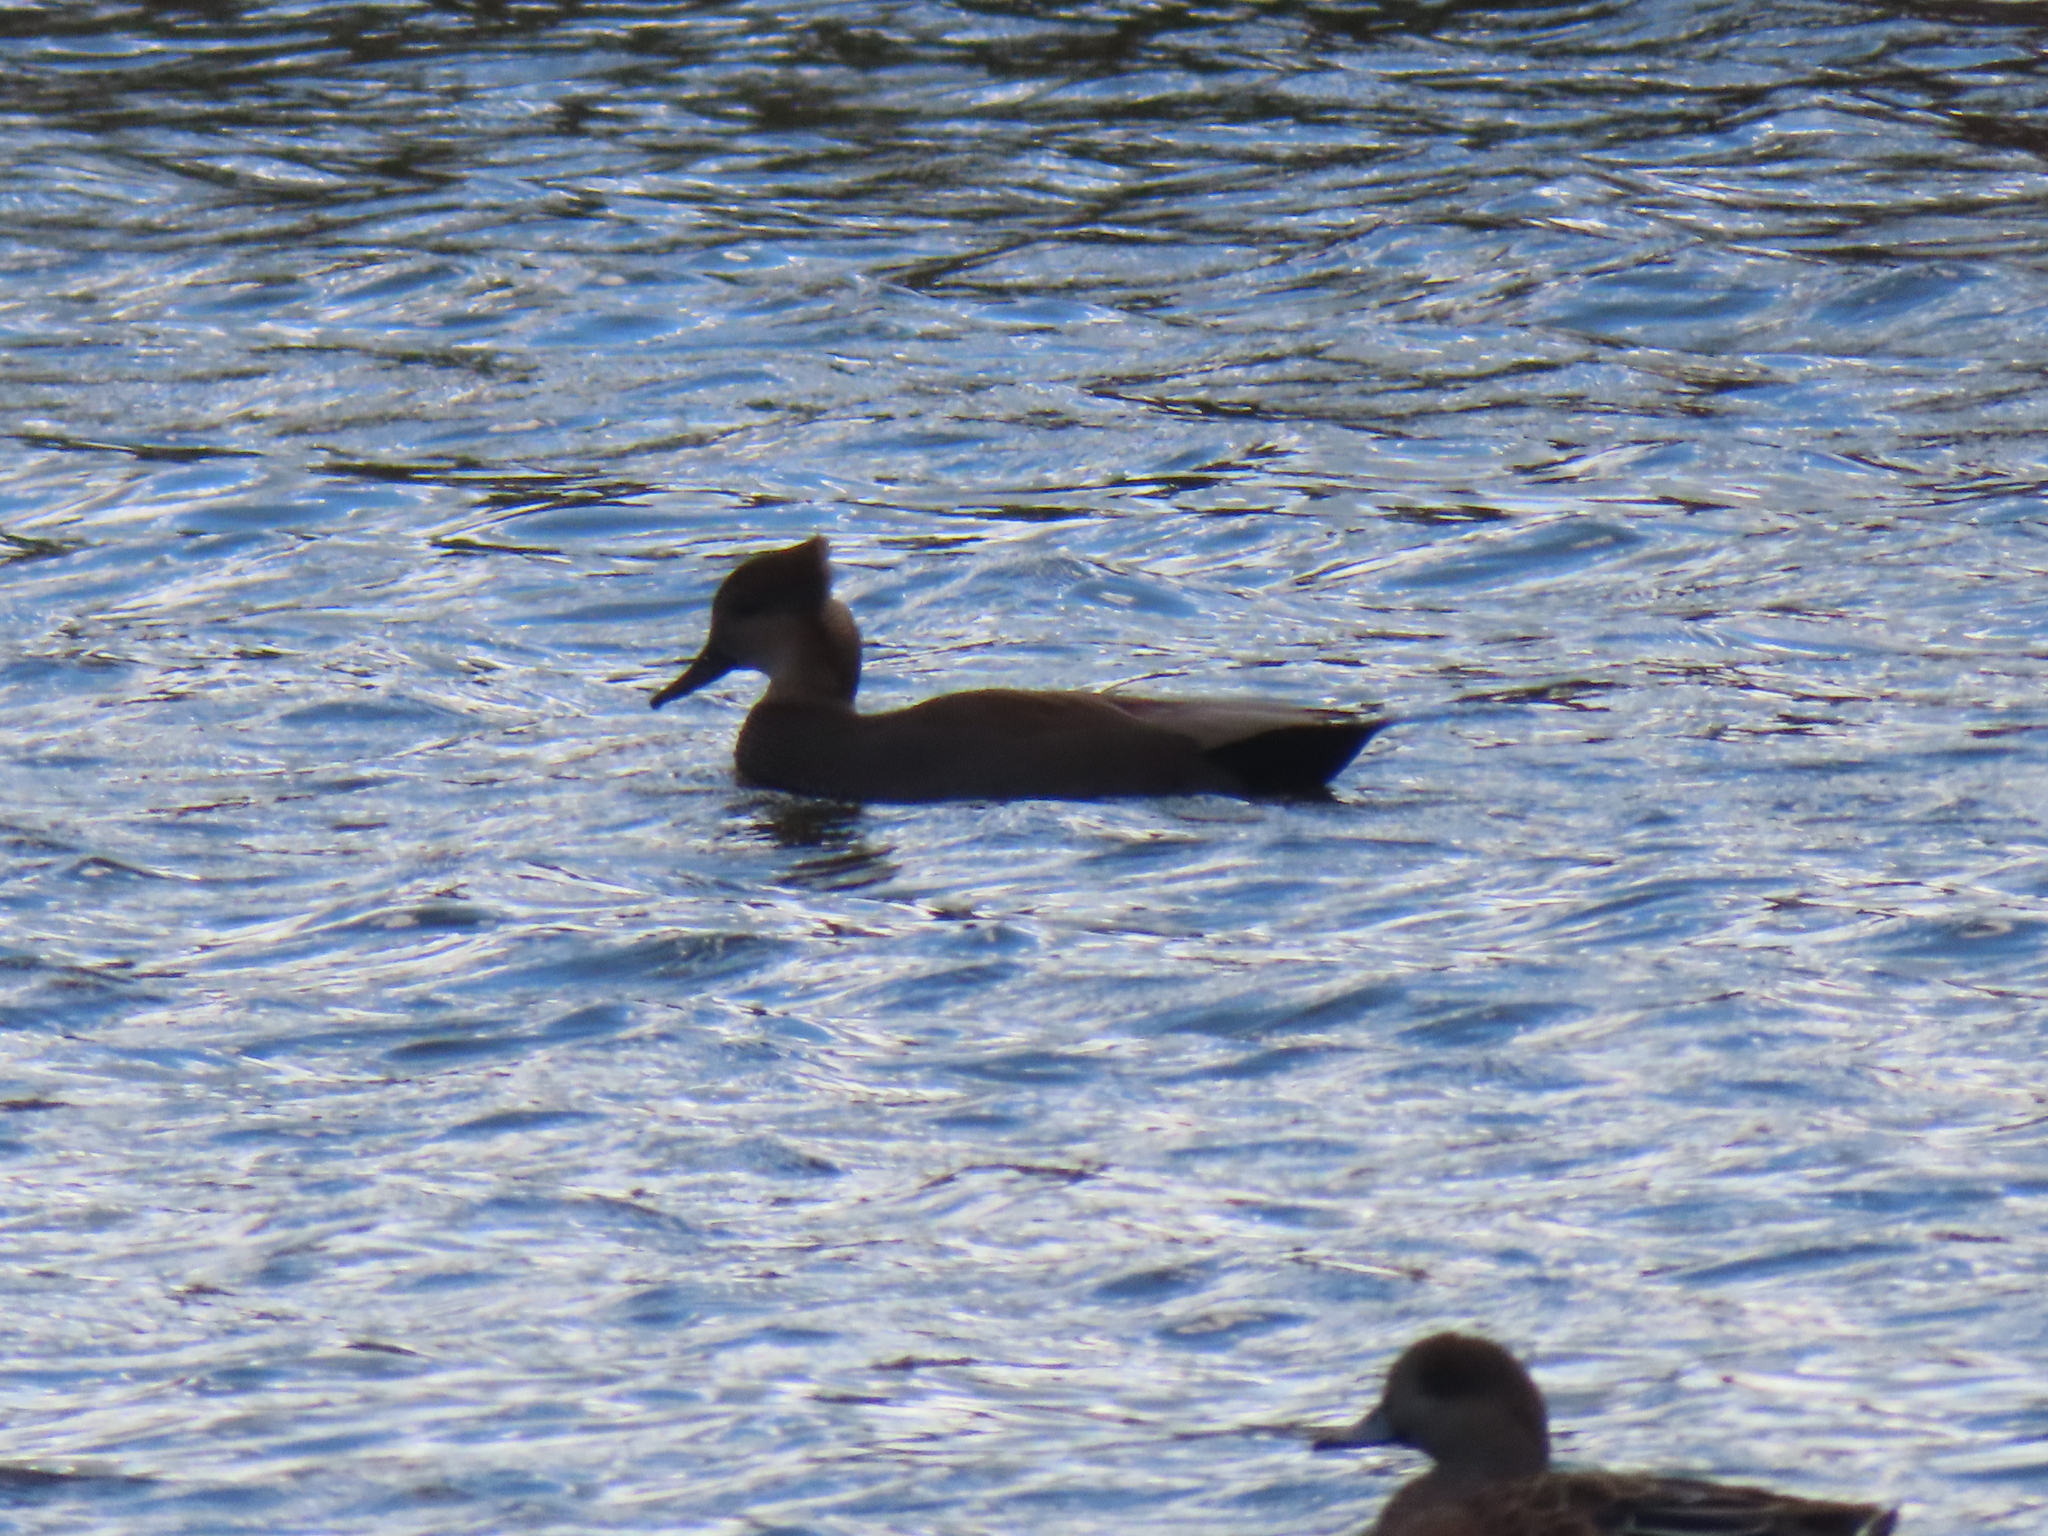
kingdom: Animalia
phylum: Chordata
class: Aves
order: Anseriformes
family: Anatidae
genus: Mareca
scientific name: Mareca strepera
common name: Gadwall
